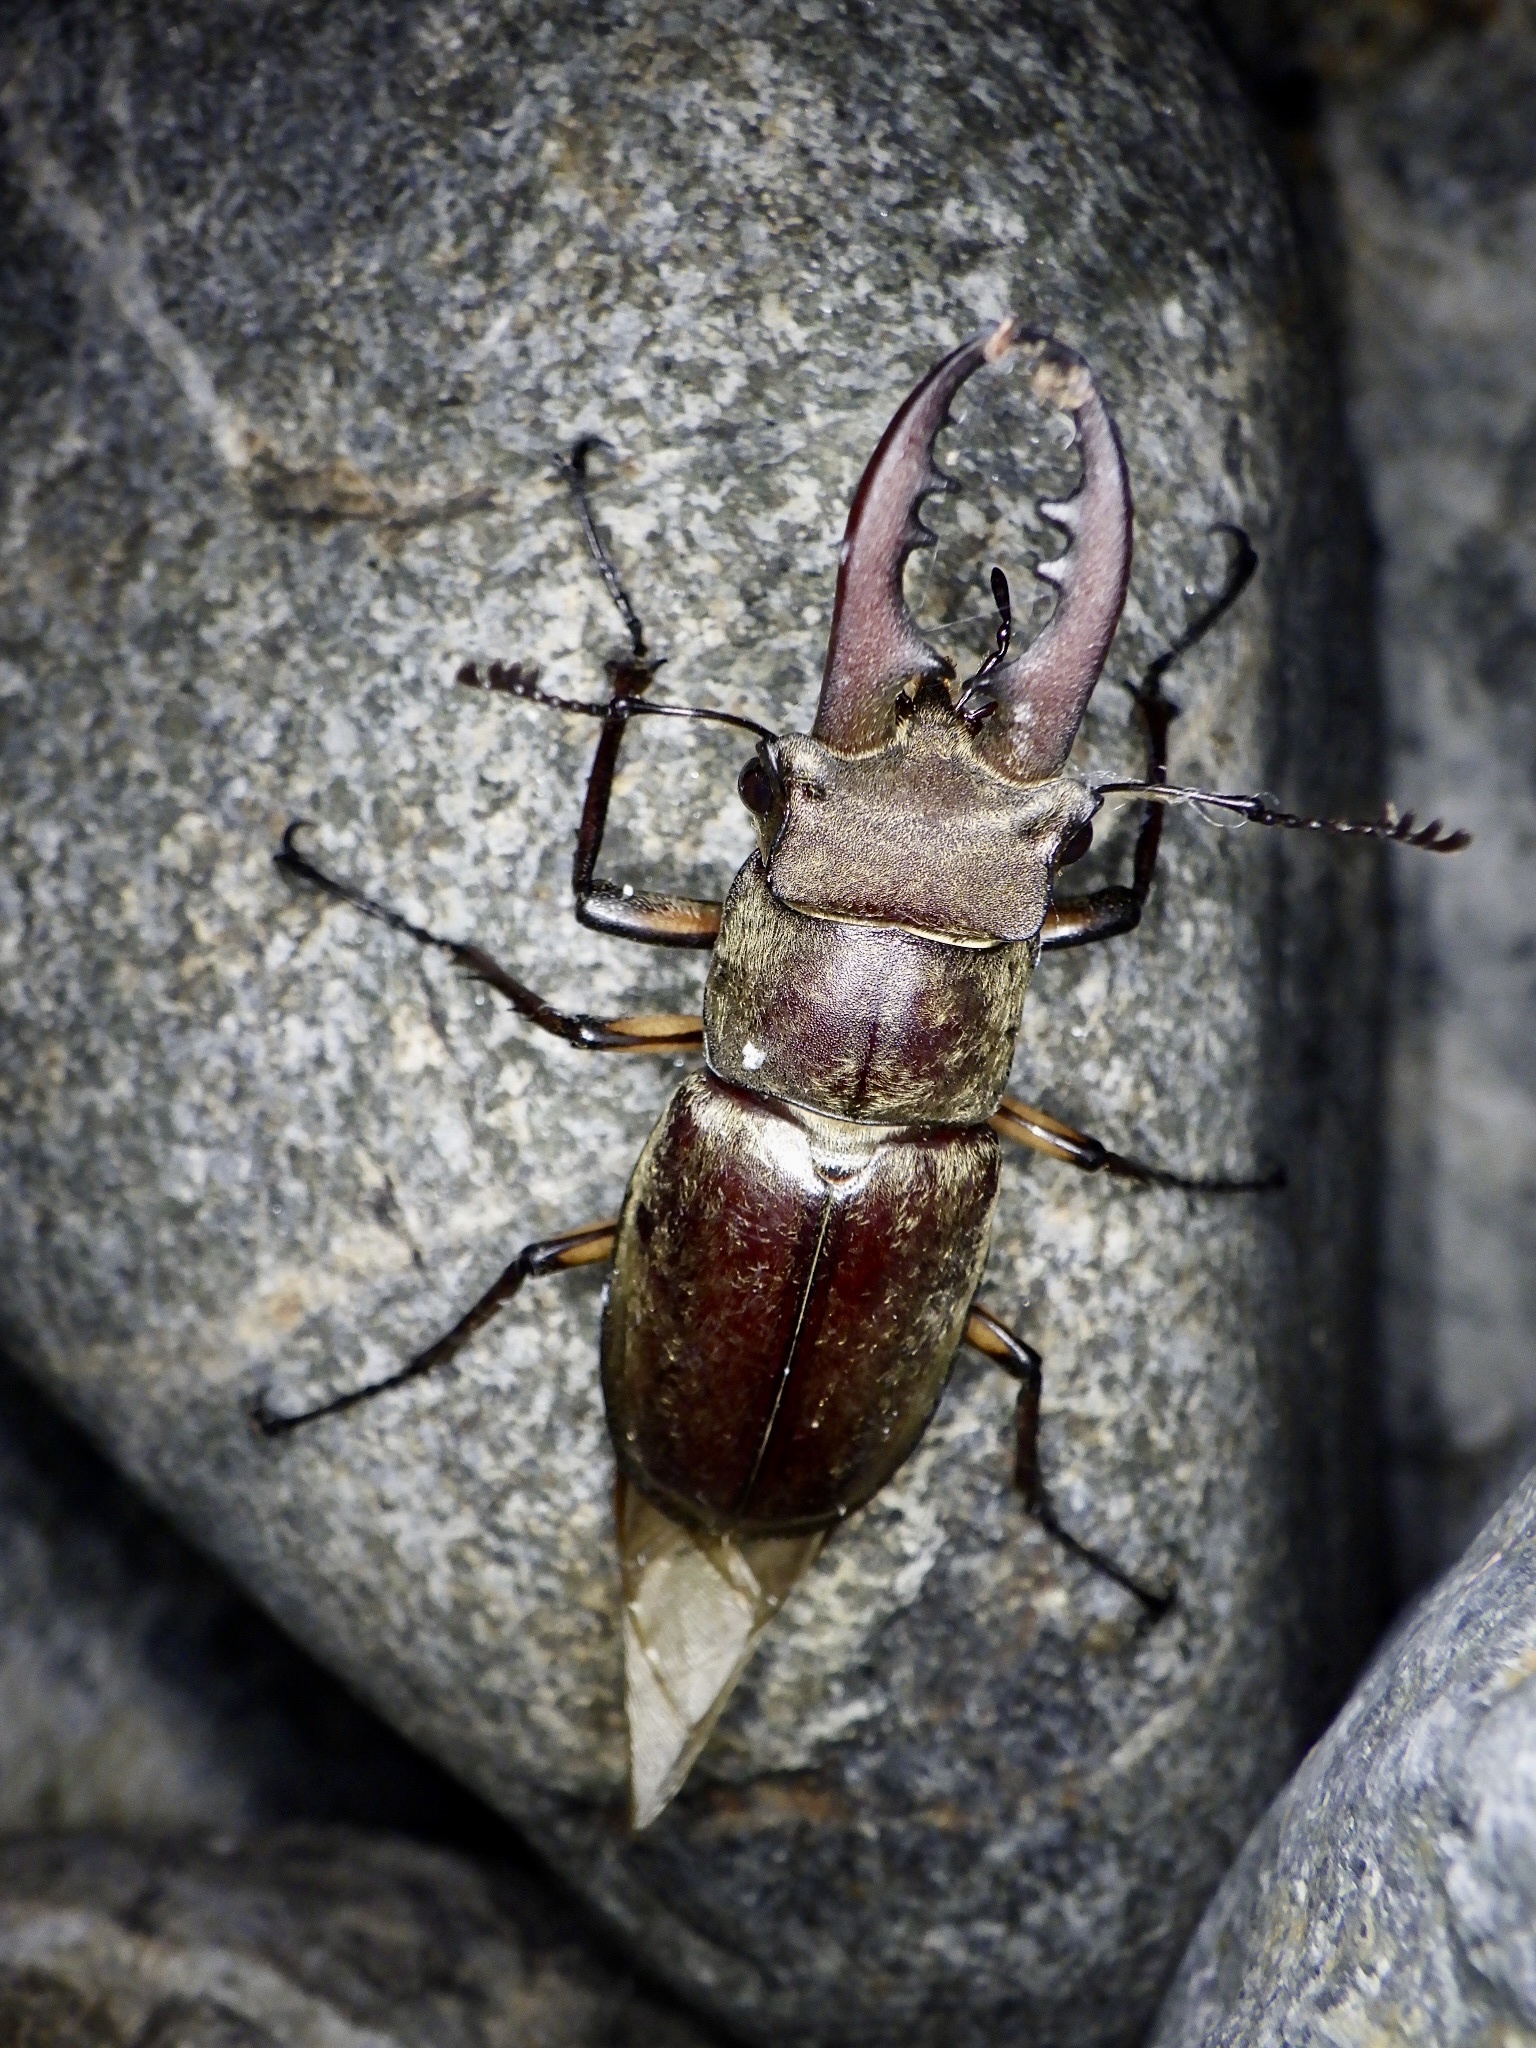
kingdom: Animalia
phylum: Arthropoda
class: Insecta
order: Coleoptera
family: Lucanidae
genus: Lucanus
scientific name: Lucanus maculifemoratus
